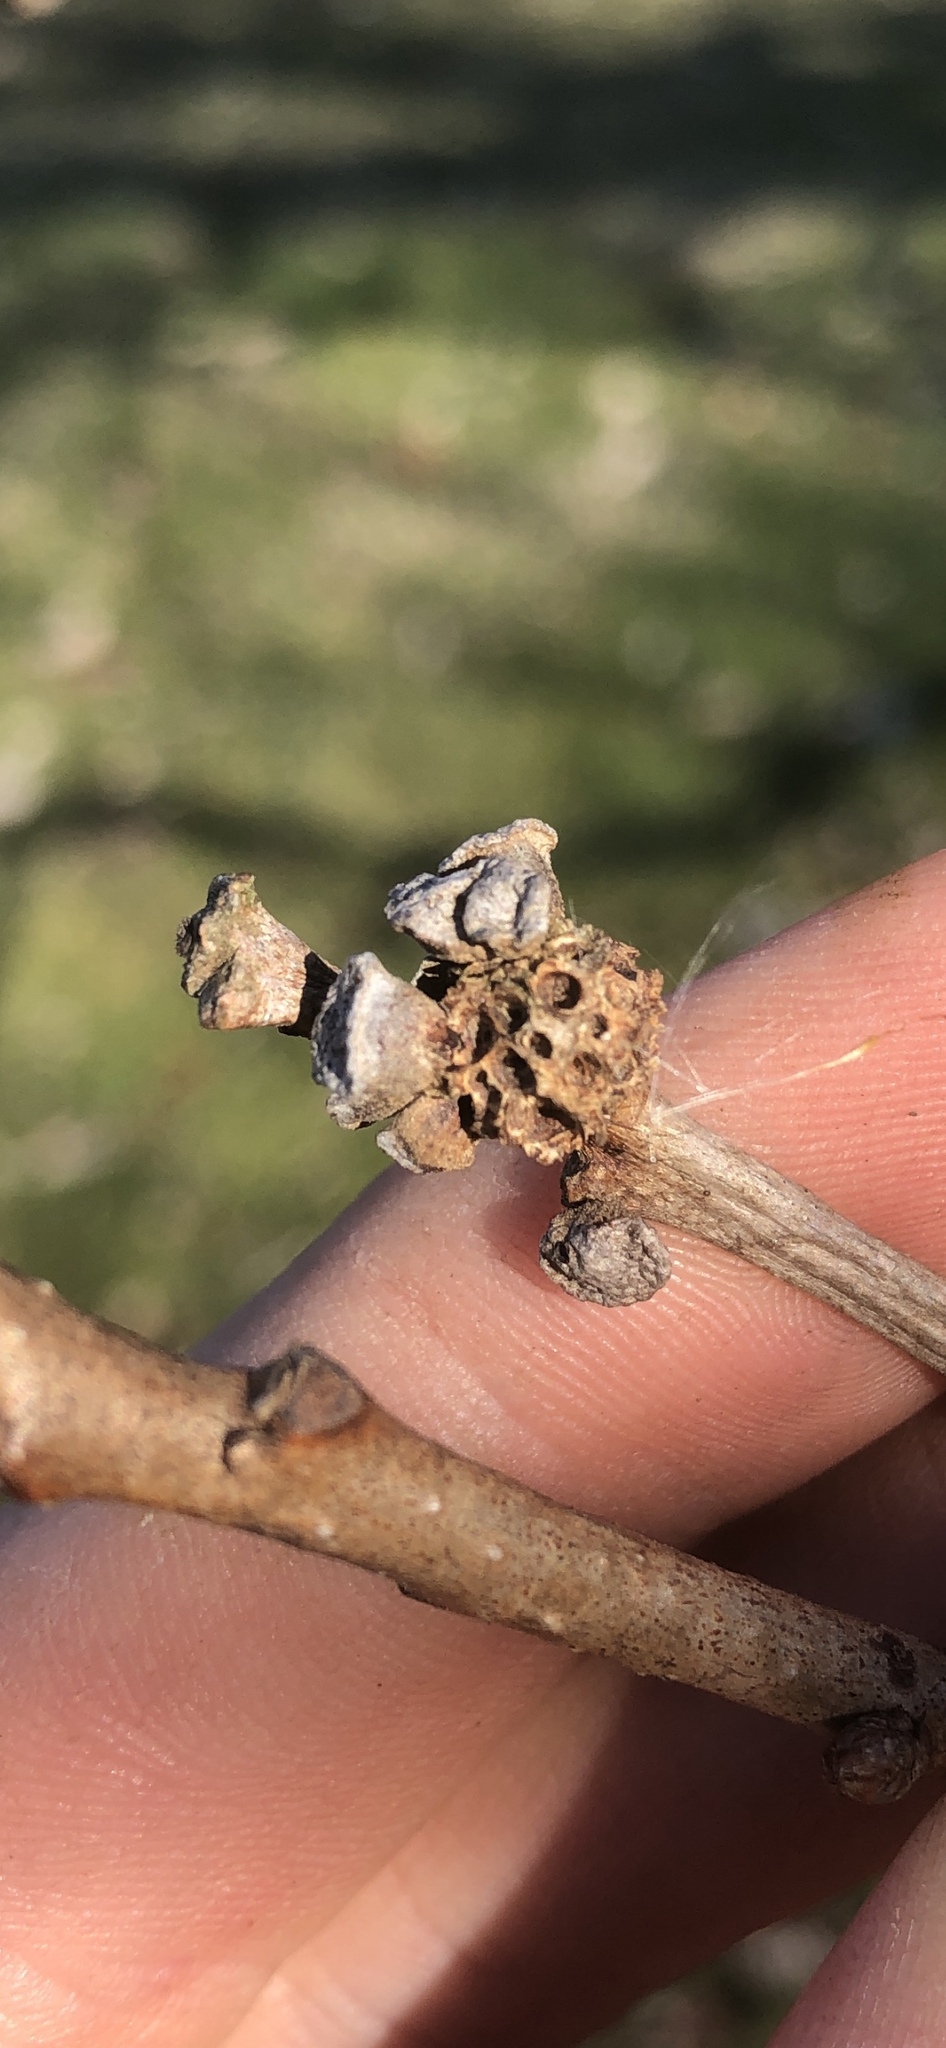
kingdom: Animalia
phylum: Arthropoda
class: Insecta
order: Hymenoptera
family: Cynipidae
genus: Andricus
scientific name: Andricus
